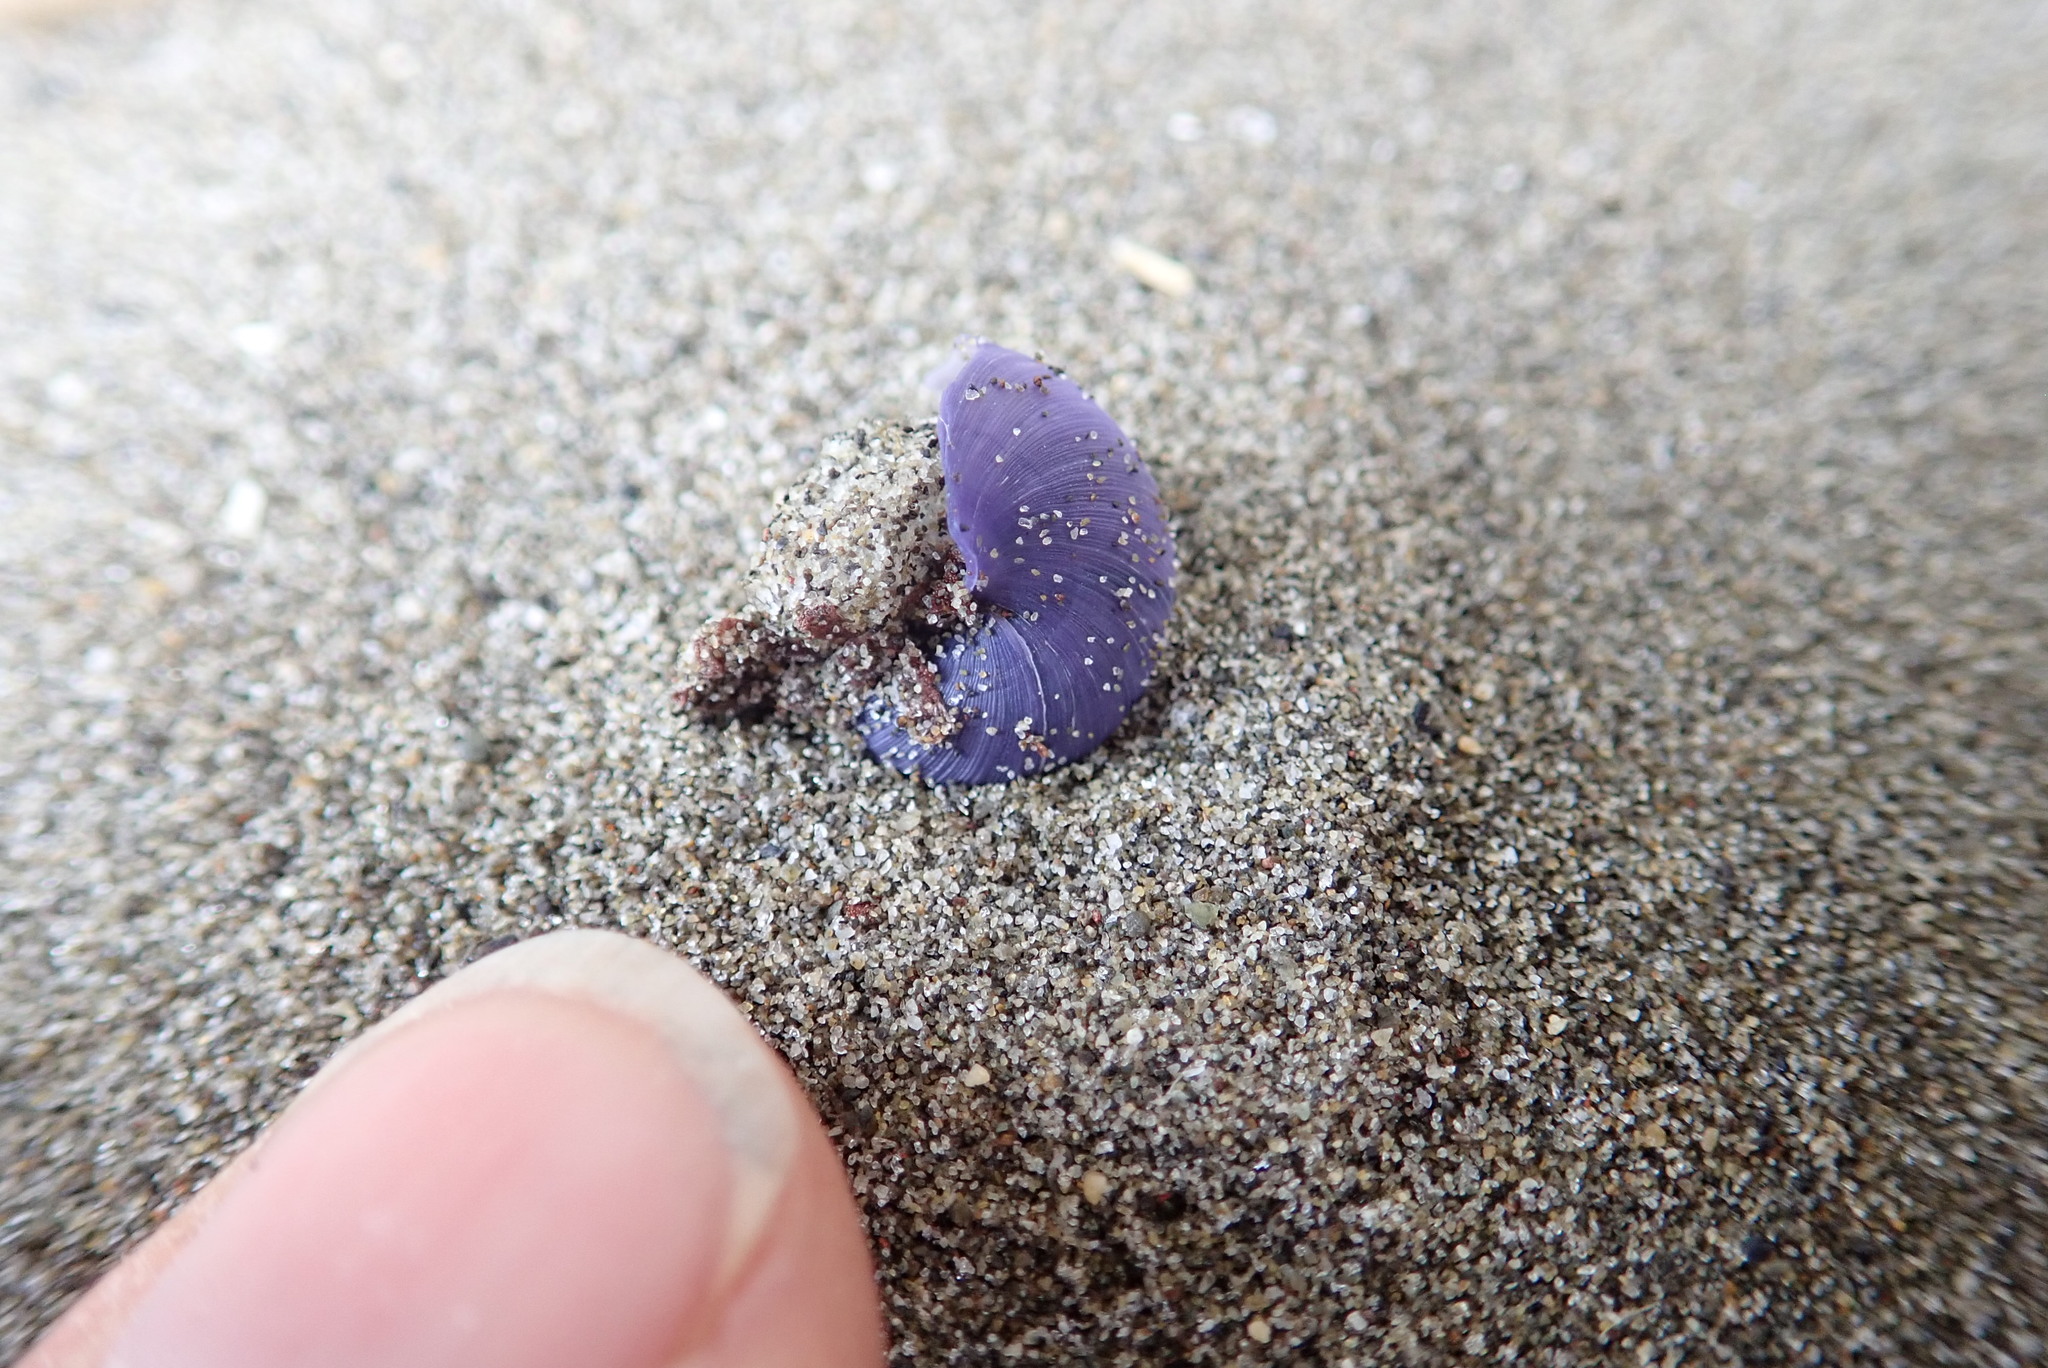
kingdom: Animalia
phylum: Mollusca
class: Gastropoda
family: Epitoniidae
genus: Janthina
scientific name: Janthina exigua
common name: Dwarf janthina
